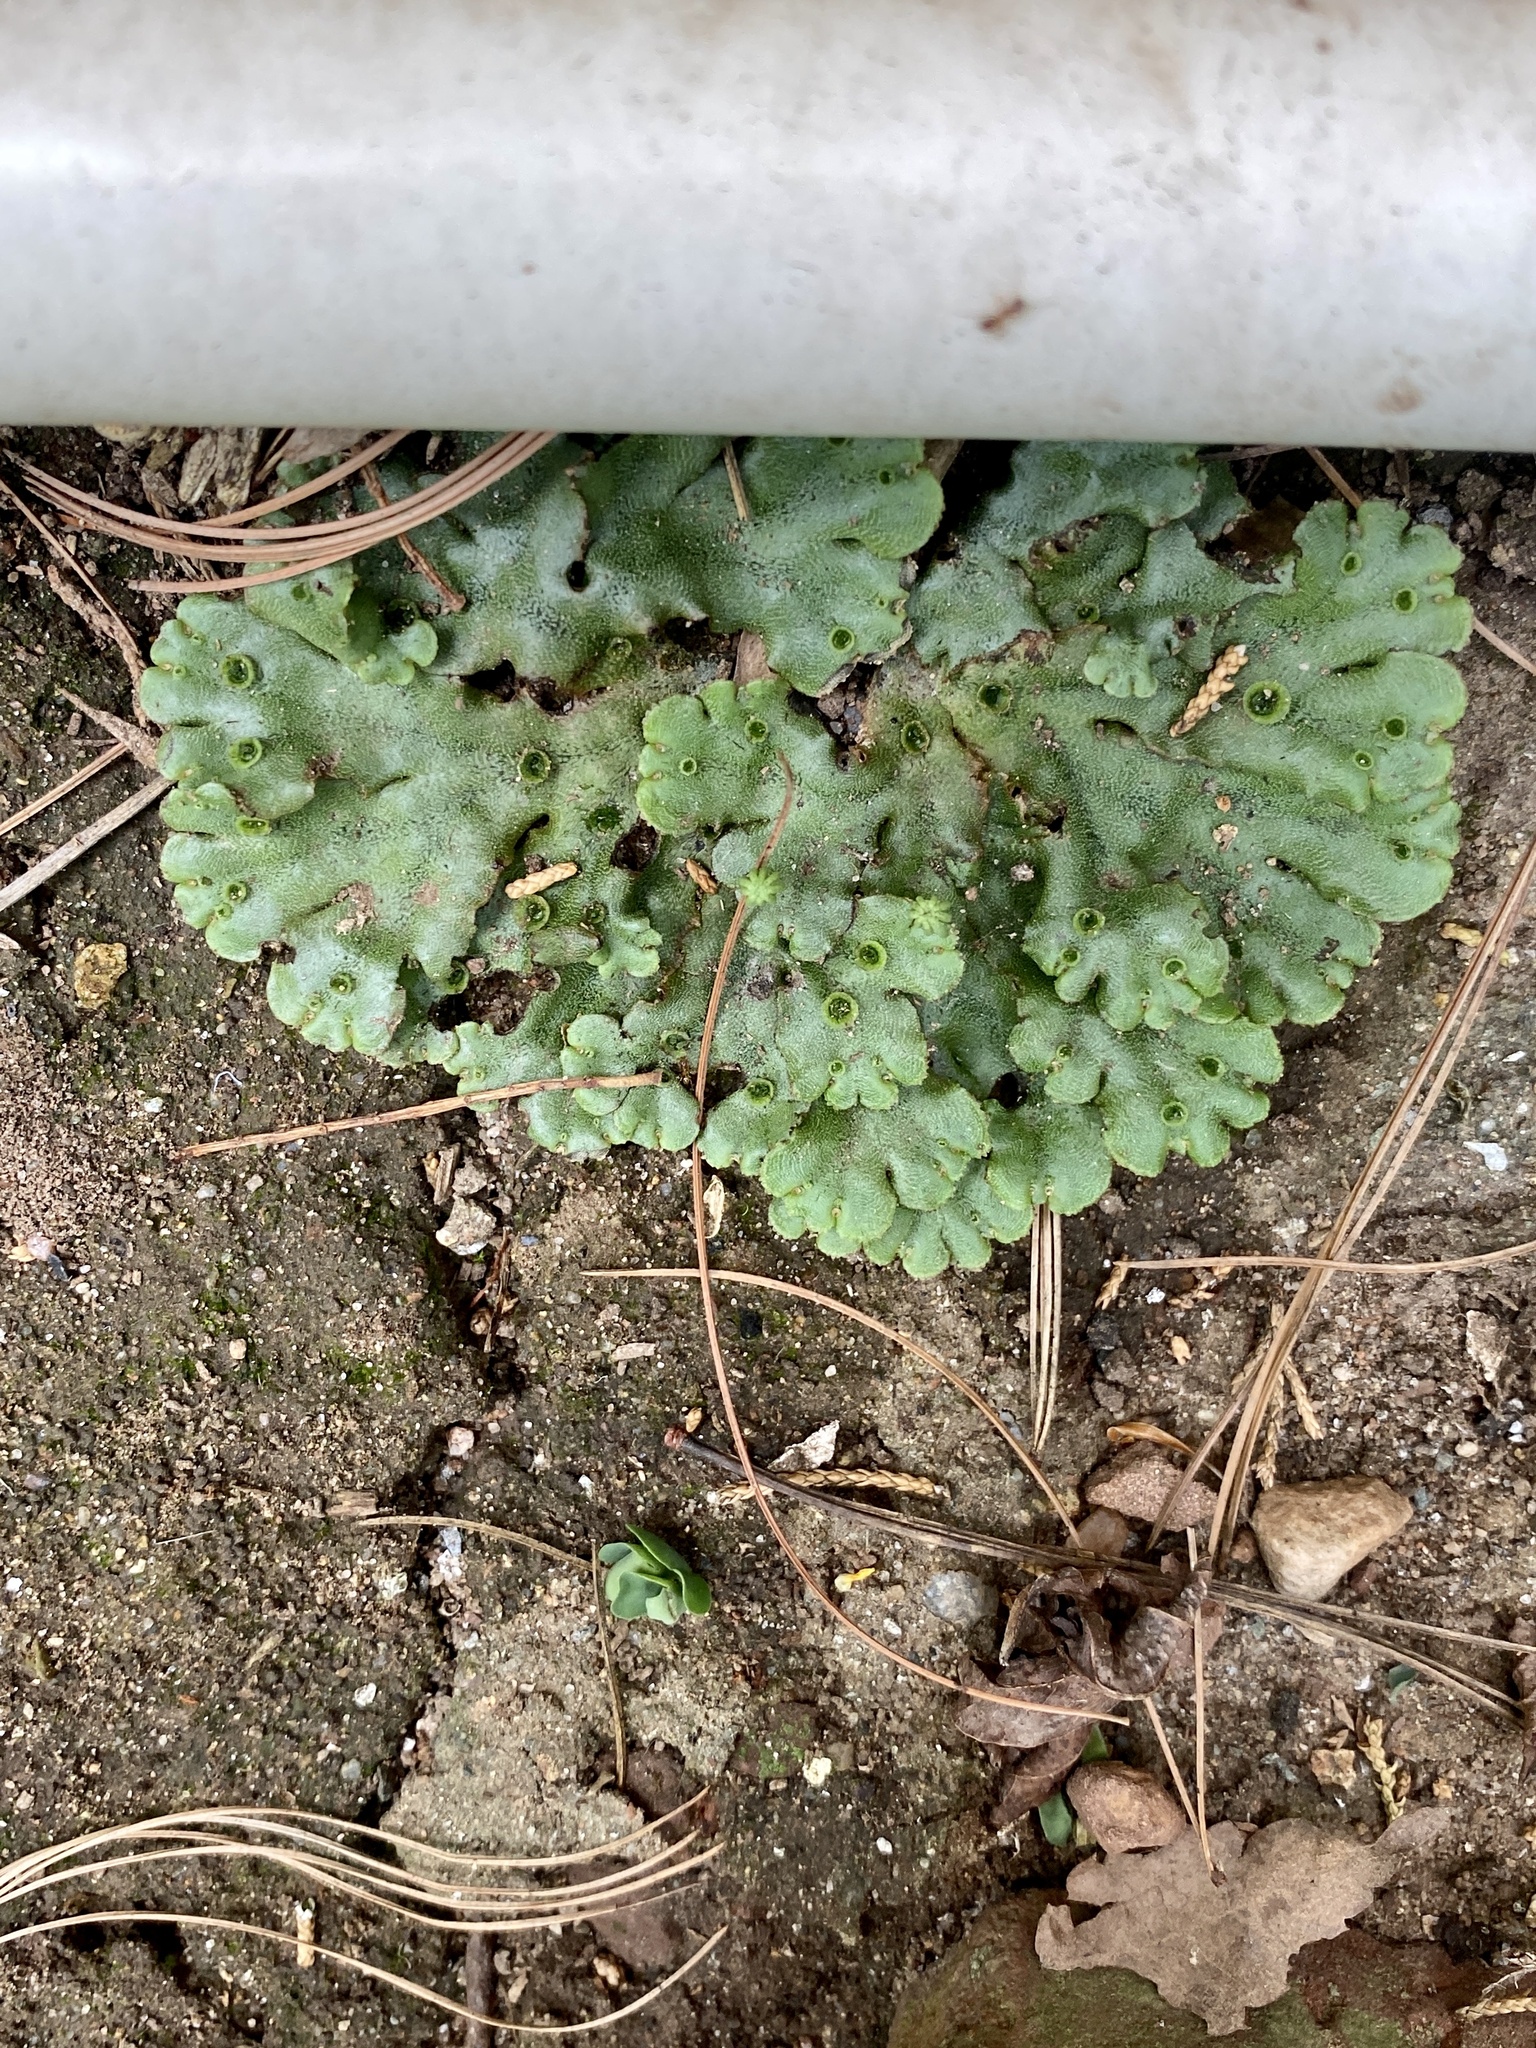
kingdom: Plantae
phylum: Marchantiophyta
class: Marchantiopsida
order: Marchantiales
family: Marchantiaceae
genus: Marchantia
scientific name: Marchantia polymorpha
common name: Common liverwort
